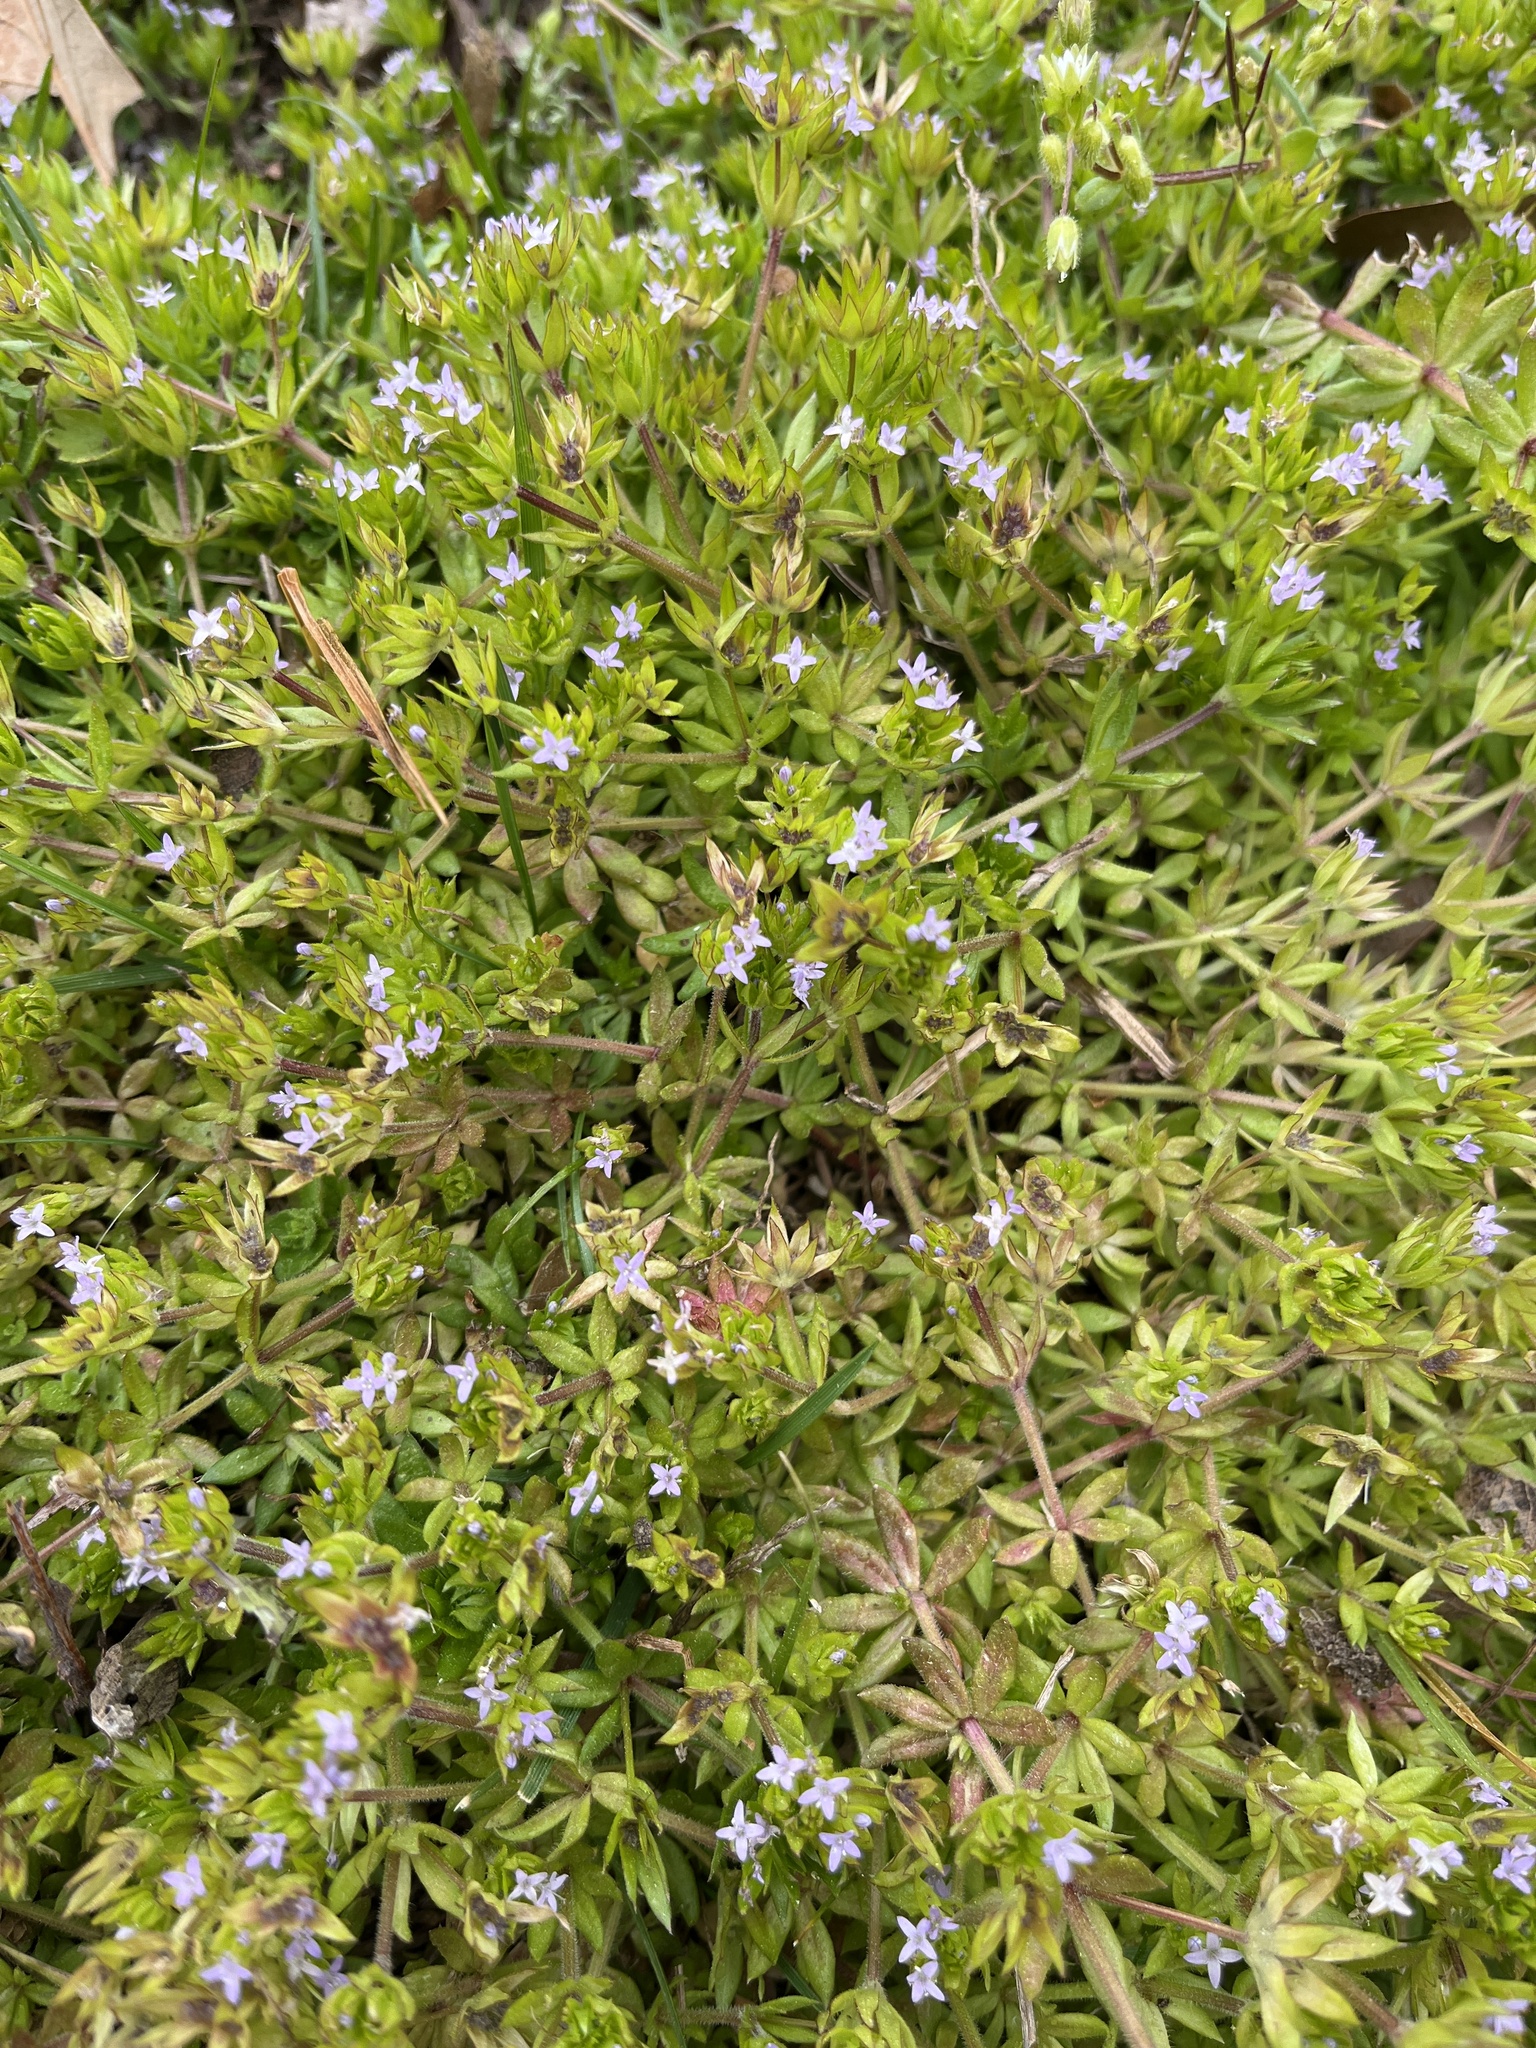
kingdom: Plantae
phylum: Tracheophyta
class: Magnoliopsida
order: Gentianales
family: Rubiaceae
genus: Sherardia
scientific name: Sherardia arvensis
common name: Field madder
